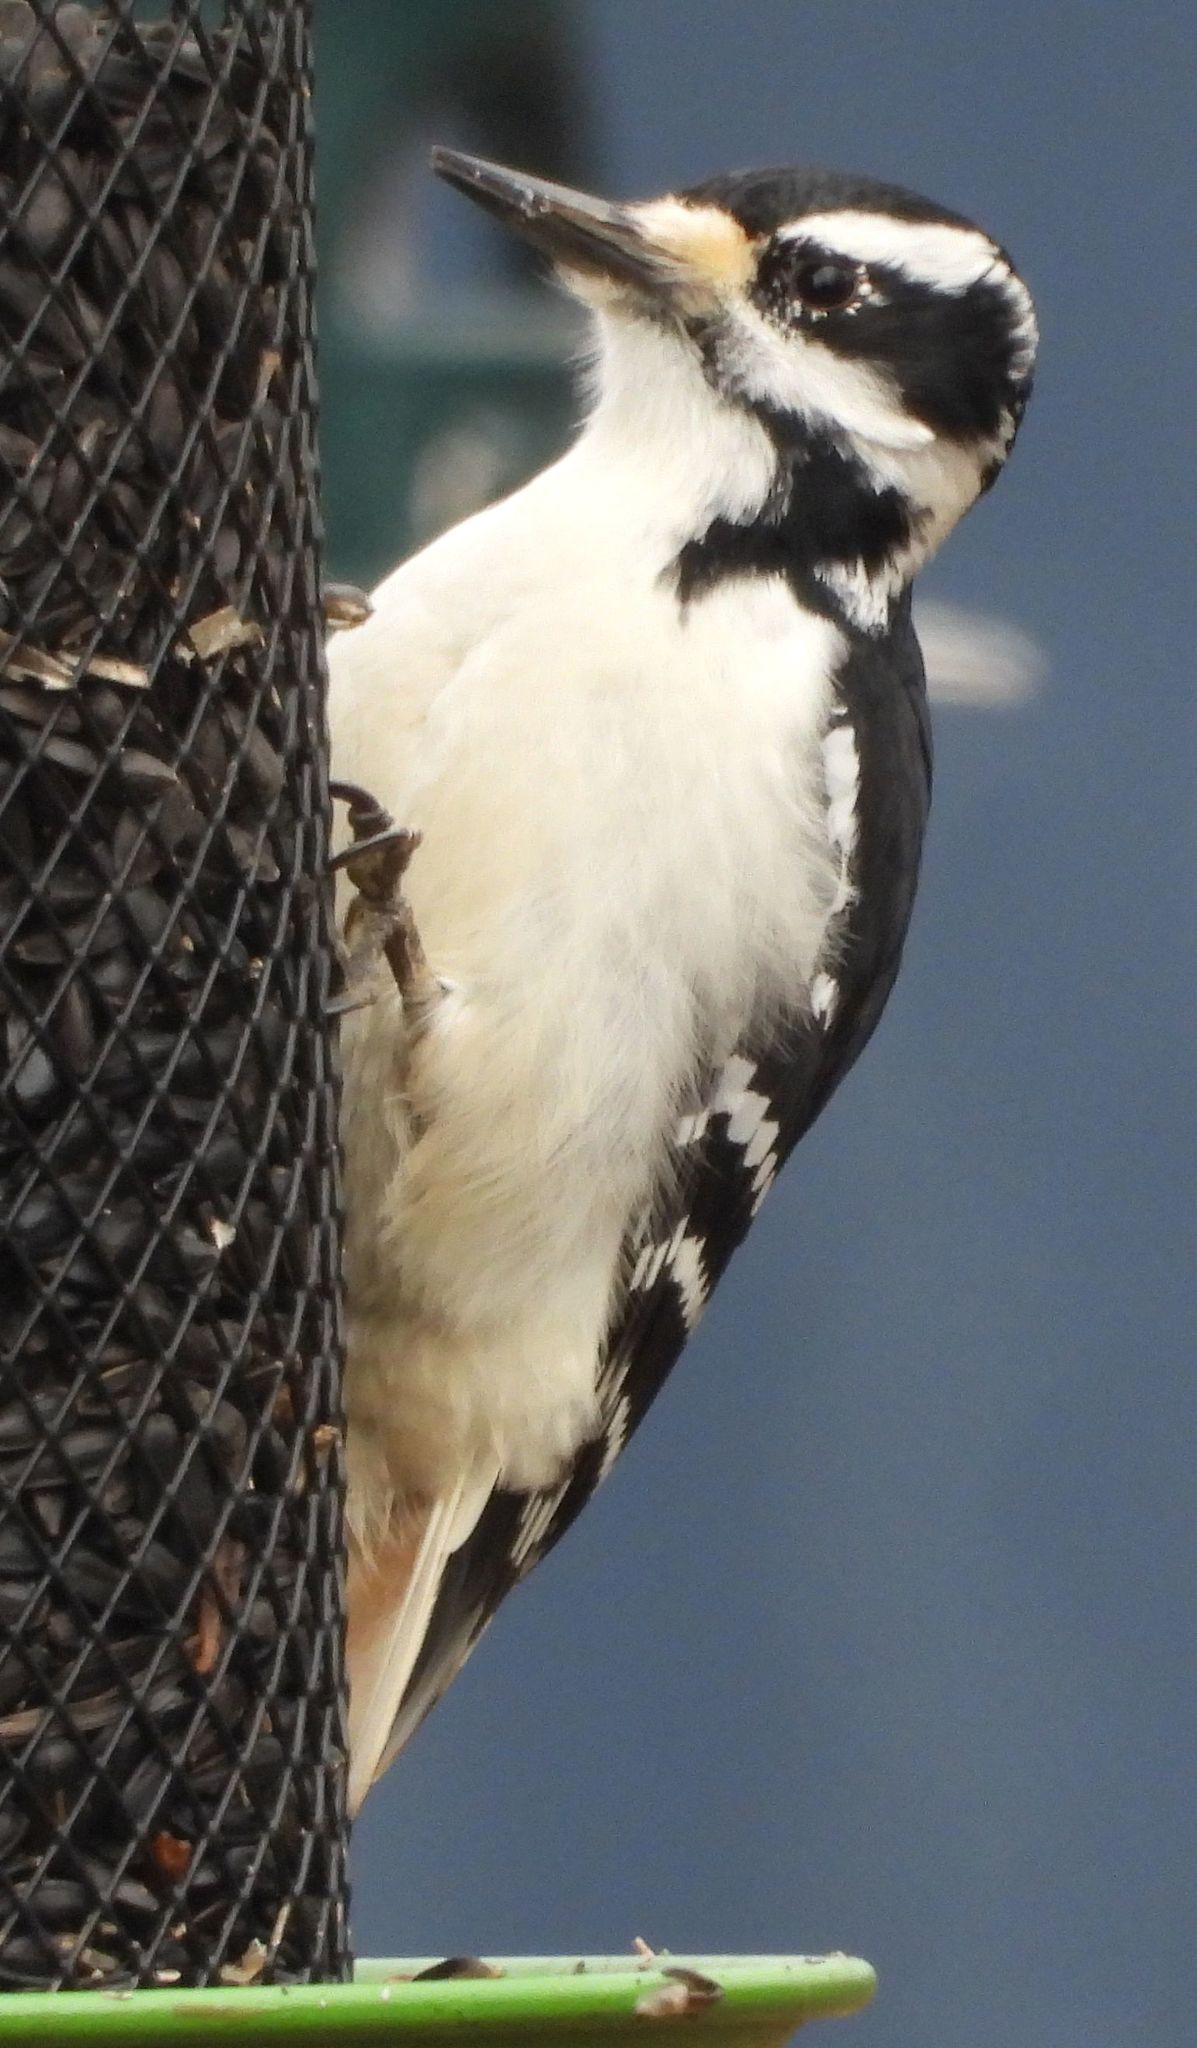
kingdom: Animalia
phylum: Chordata
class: Aves
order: Piciformes
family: Picidae
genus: Leuconotopicus
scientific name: Leuconotopicus villosus
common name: Hairy woodpecker
